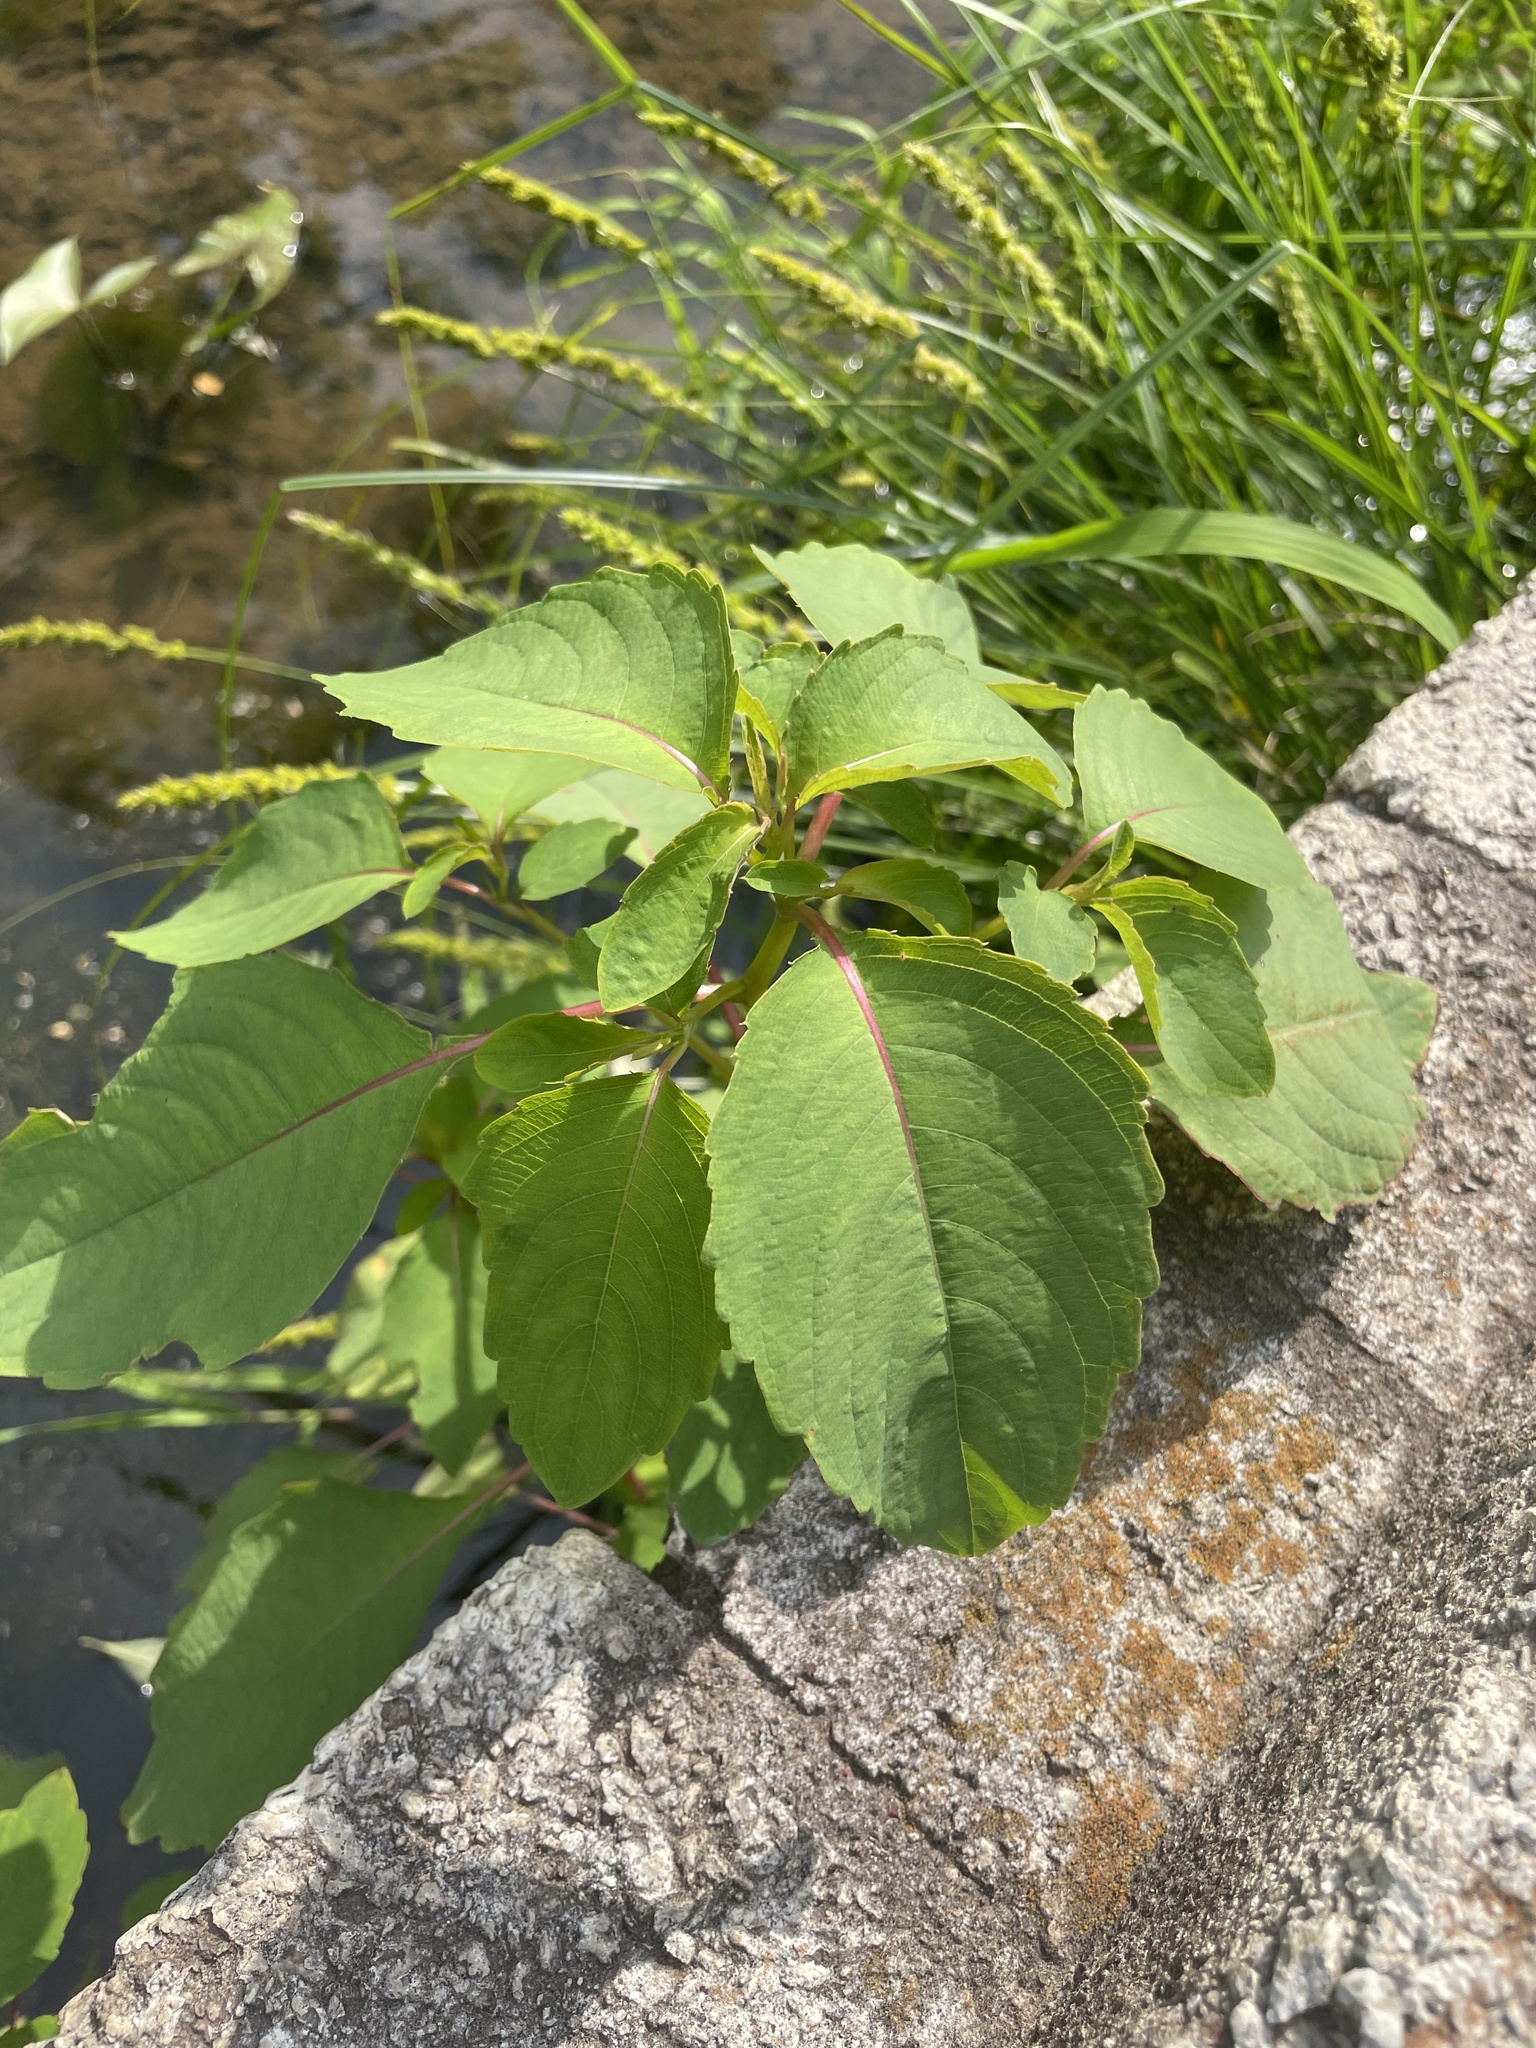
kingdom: Plantae
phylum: Tracheophyta
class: Magnoliopsida
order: Ericales
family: Balsaminaceae
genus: Impatiens
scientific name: Impatiens capensis
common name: Orange balsam
